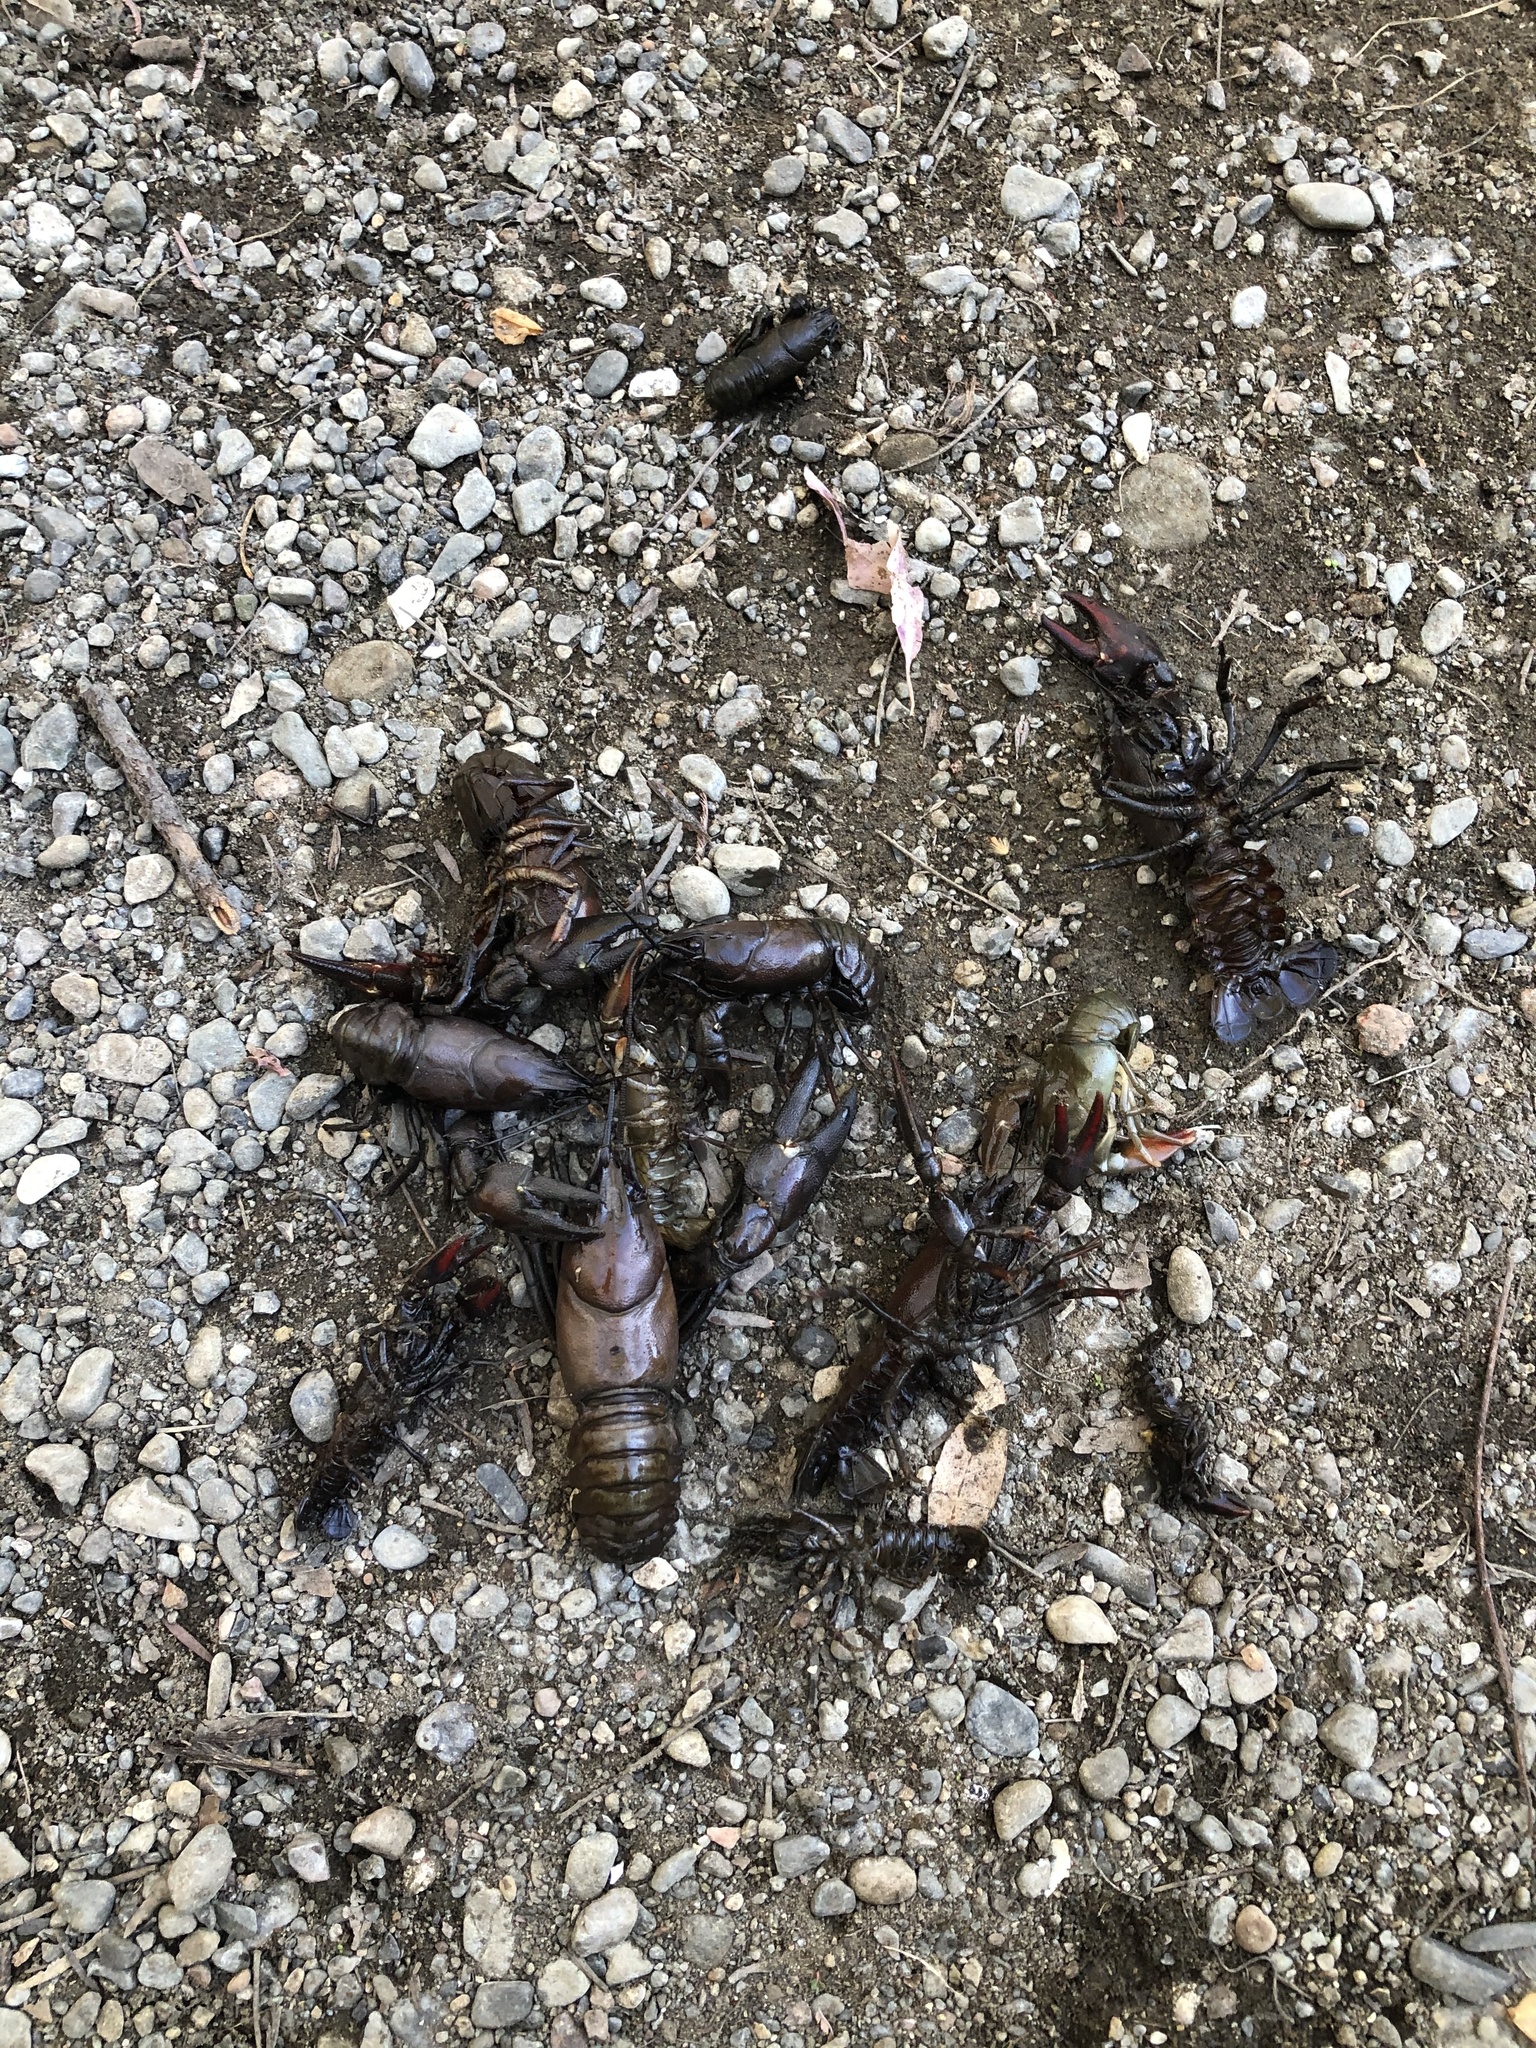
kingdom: Animalia
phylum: Arthropoda
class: Malacostraca
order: Decapoda
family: Astacidae
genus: Pacifastacus
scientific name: Pacifastacus leniusculus
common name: Signal crayfish
